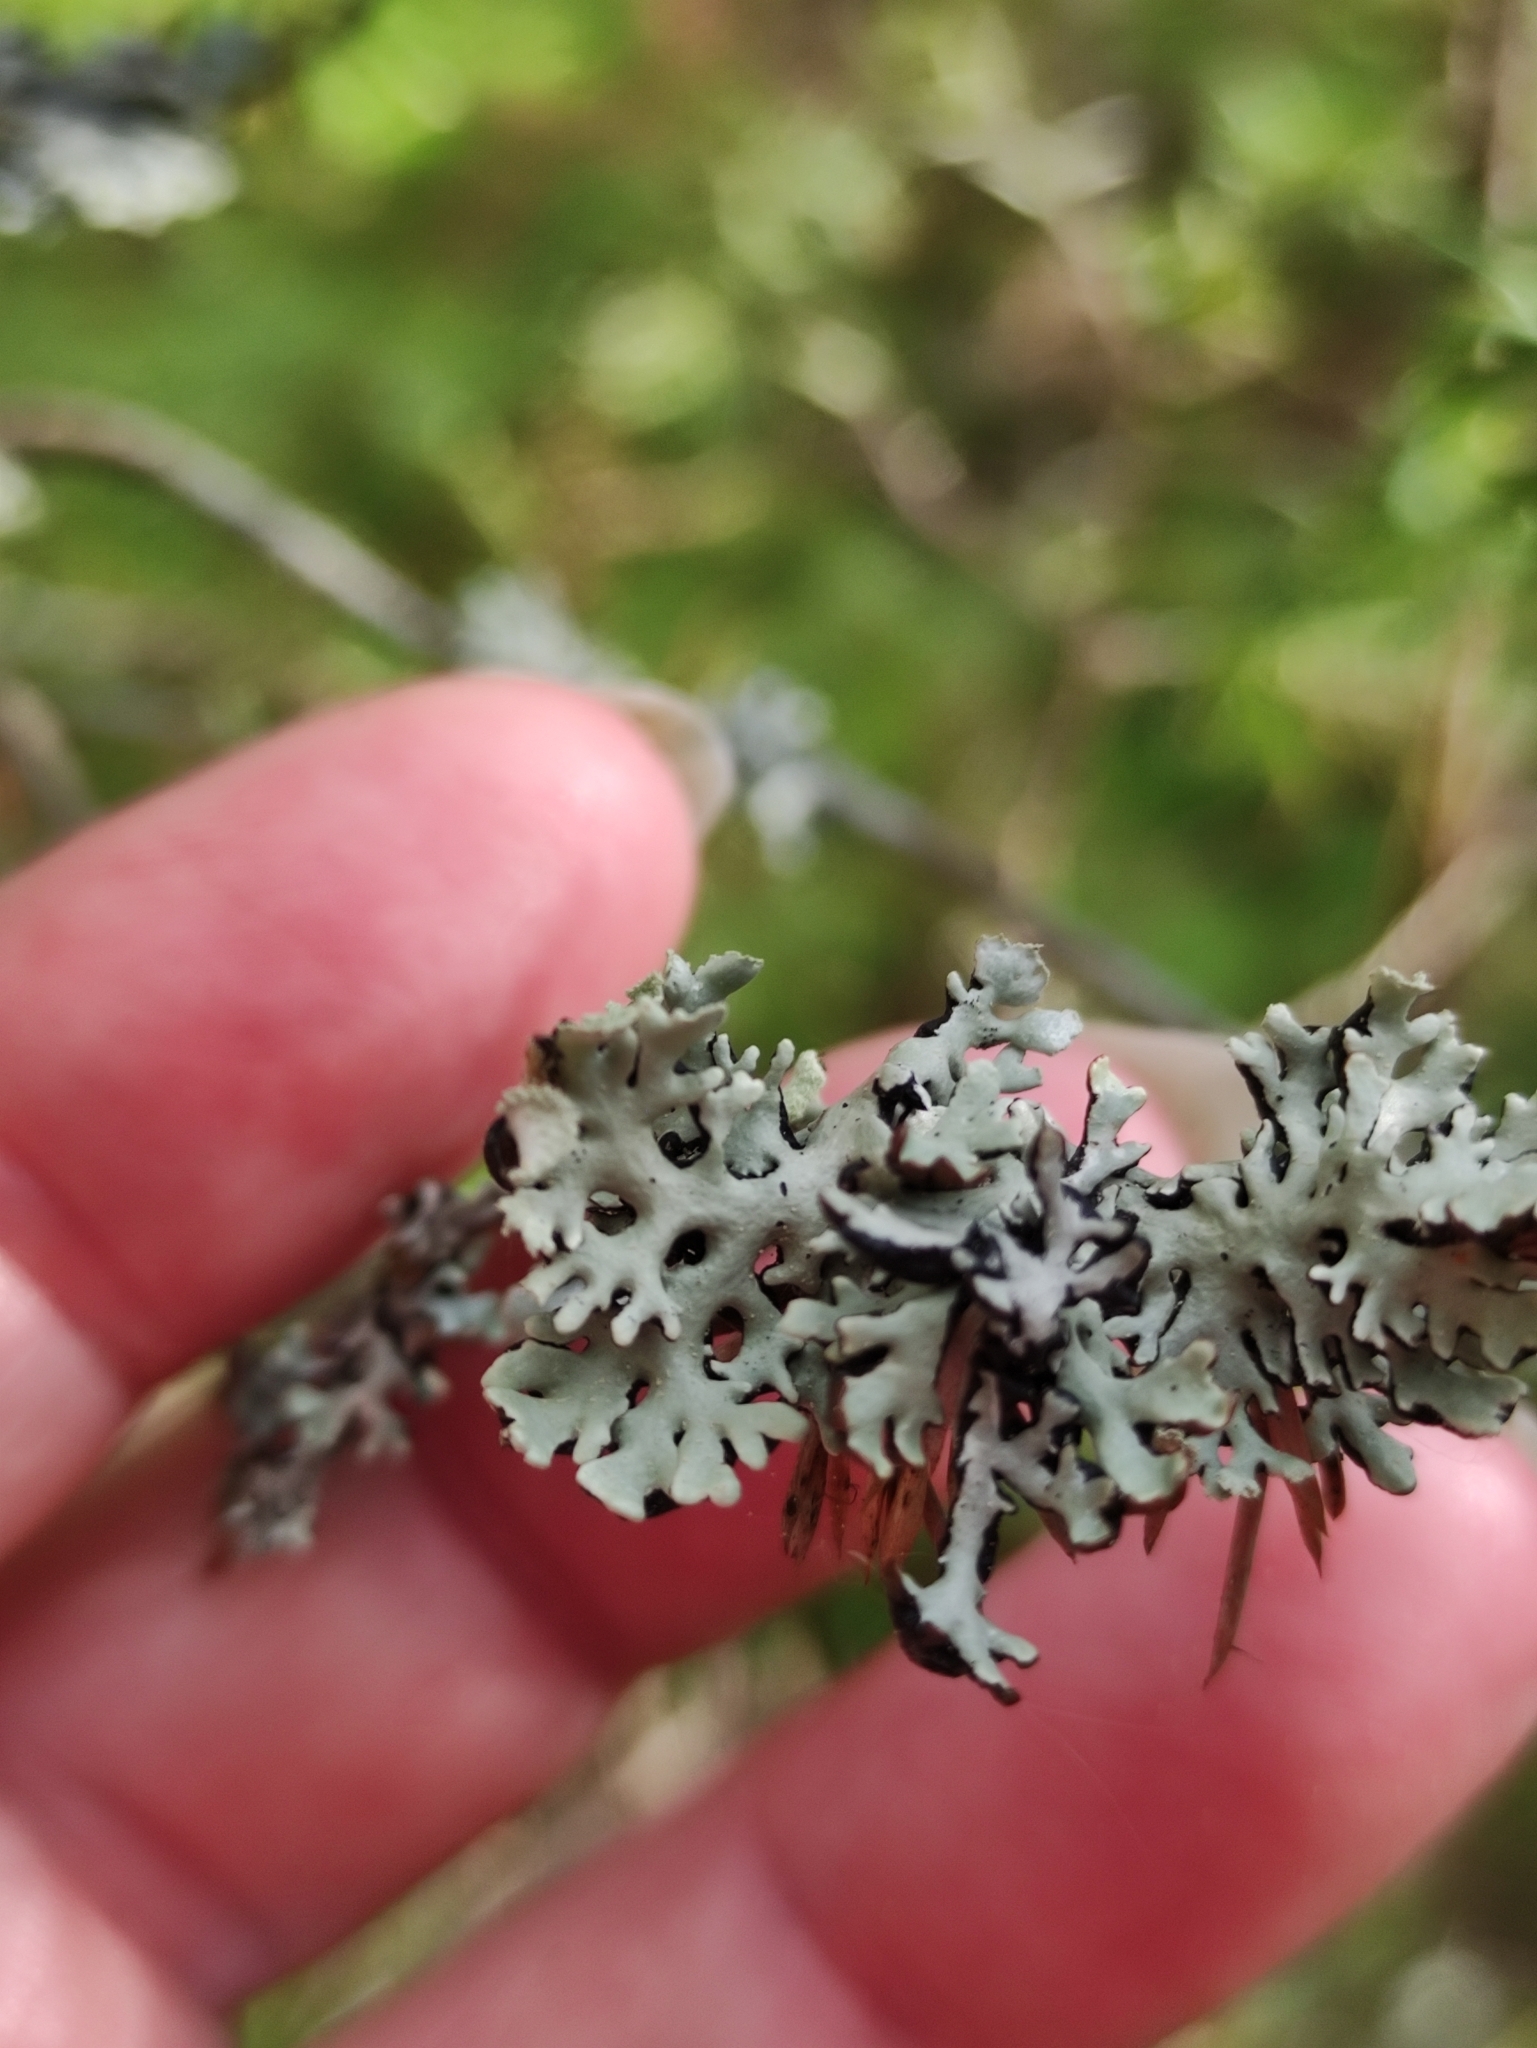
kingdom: Fungi
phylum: Ascomycota
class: Lecanoromycetes
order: Lecanorales
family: Parmeliaceae
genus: Hypogymnia
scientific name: Hypogymnia physodes
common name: Dark crottle
